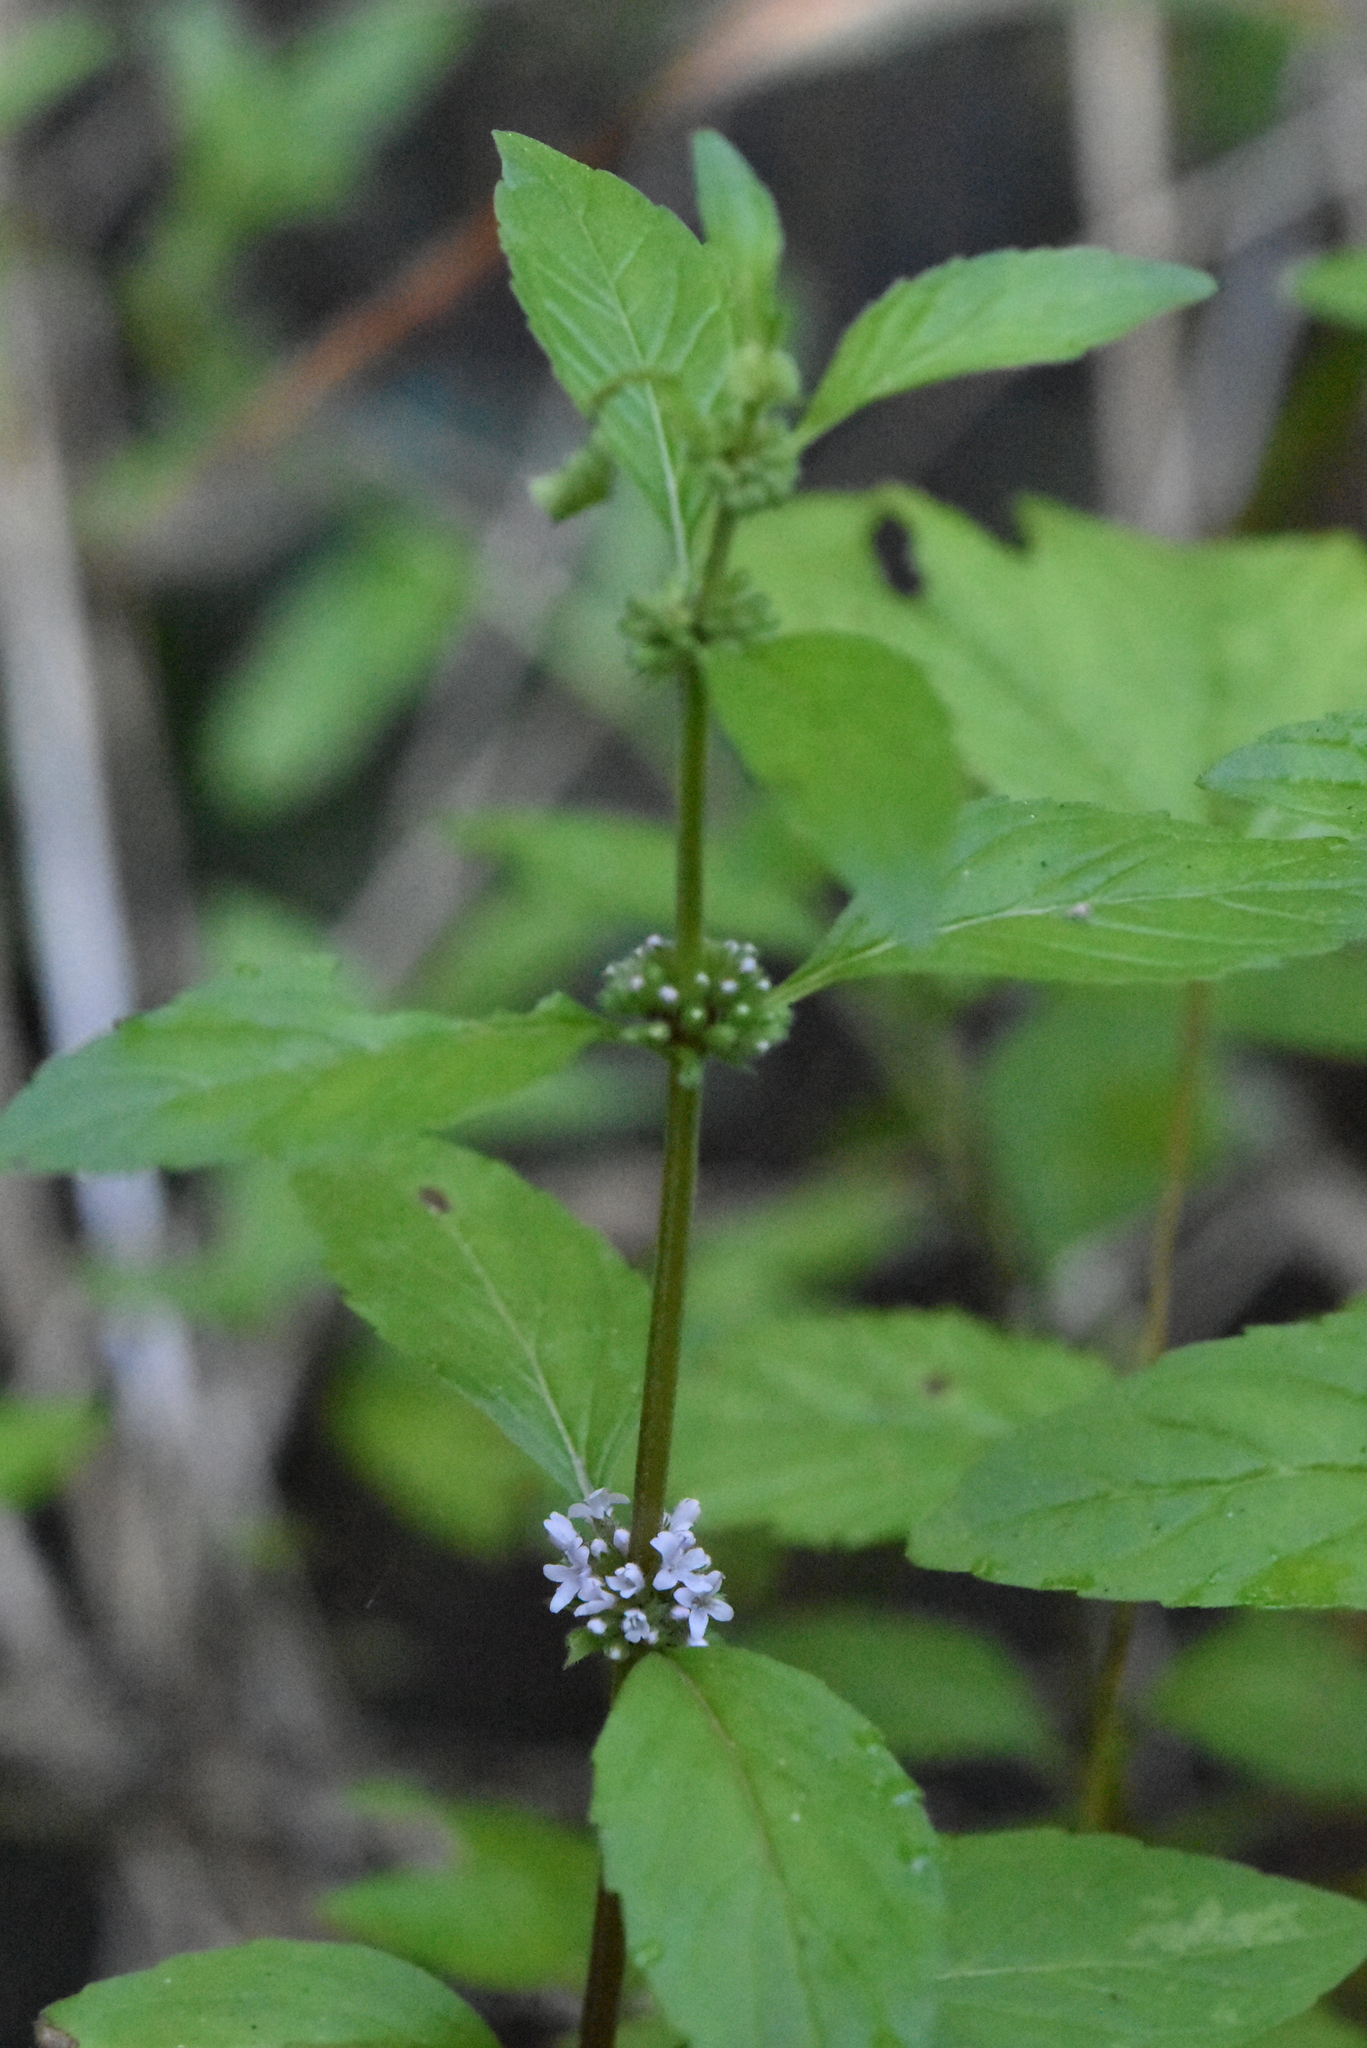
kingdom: Plantae
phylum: Tracheophyta
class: Magnoliopsida
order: Lamiales
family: Lamiaceae
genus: Mentha
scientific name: Mentha arvensis
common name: Corn mint
